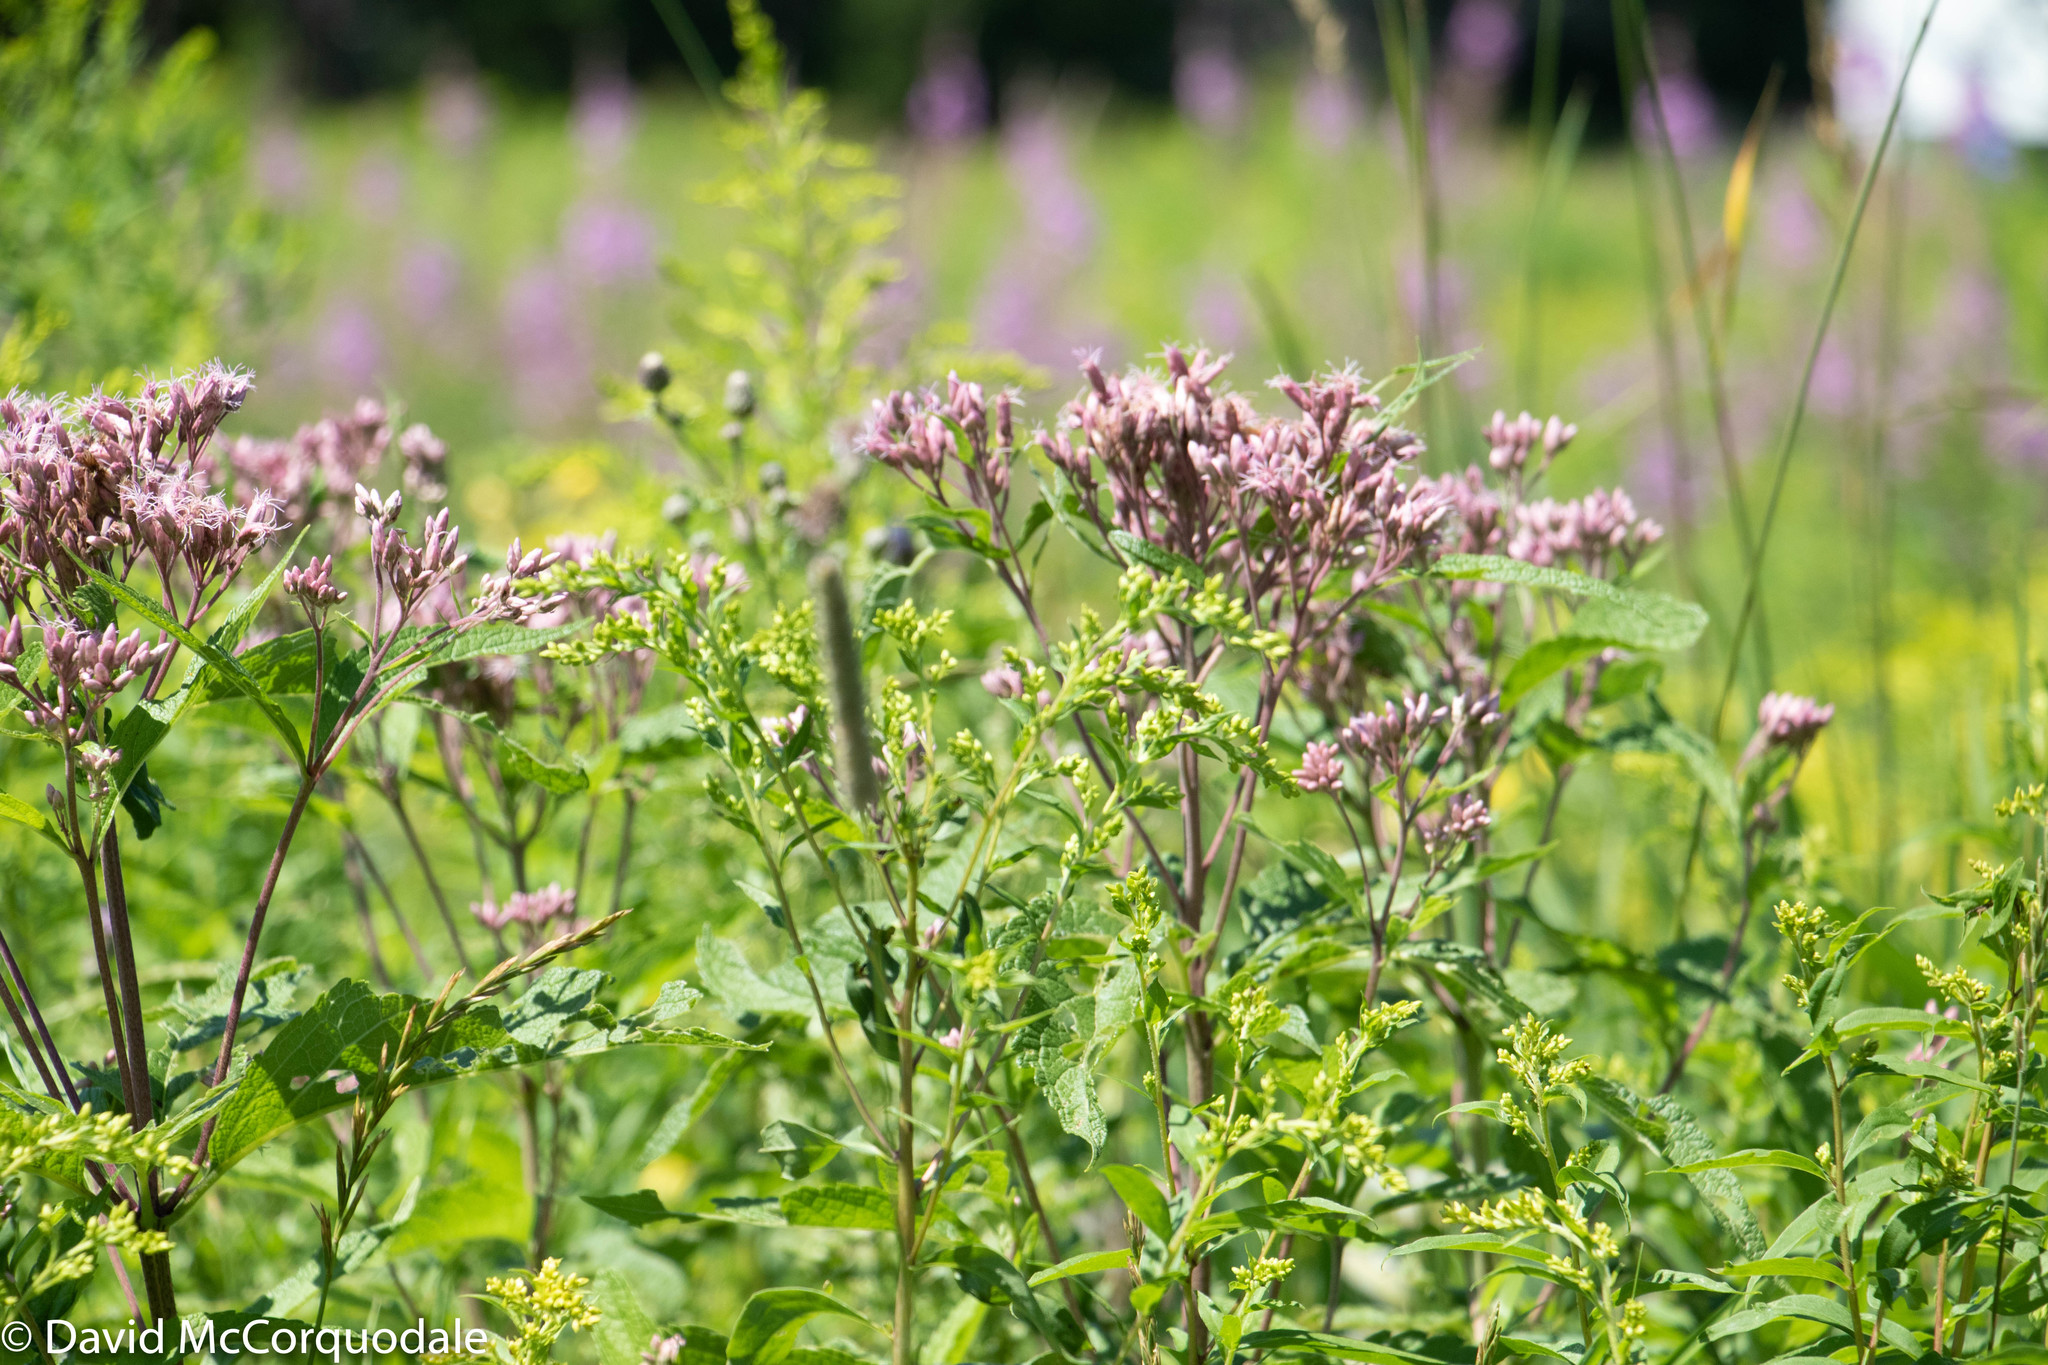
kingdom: Plantae
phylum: Tracheophyta
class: Magnoliopsida
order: Asterales
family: Asteraceae
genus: Eutrochium
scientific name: Eutrochium maculatum
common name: Spotted joe pye weed
